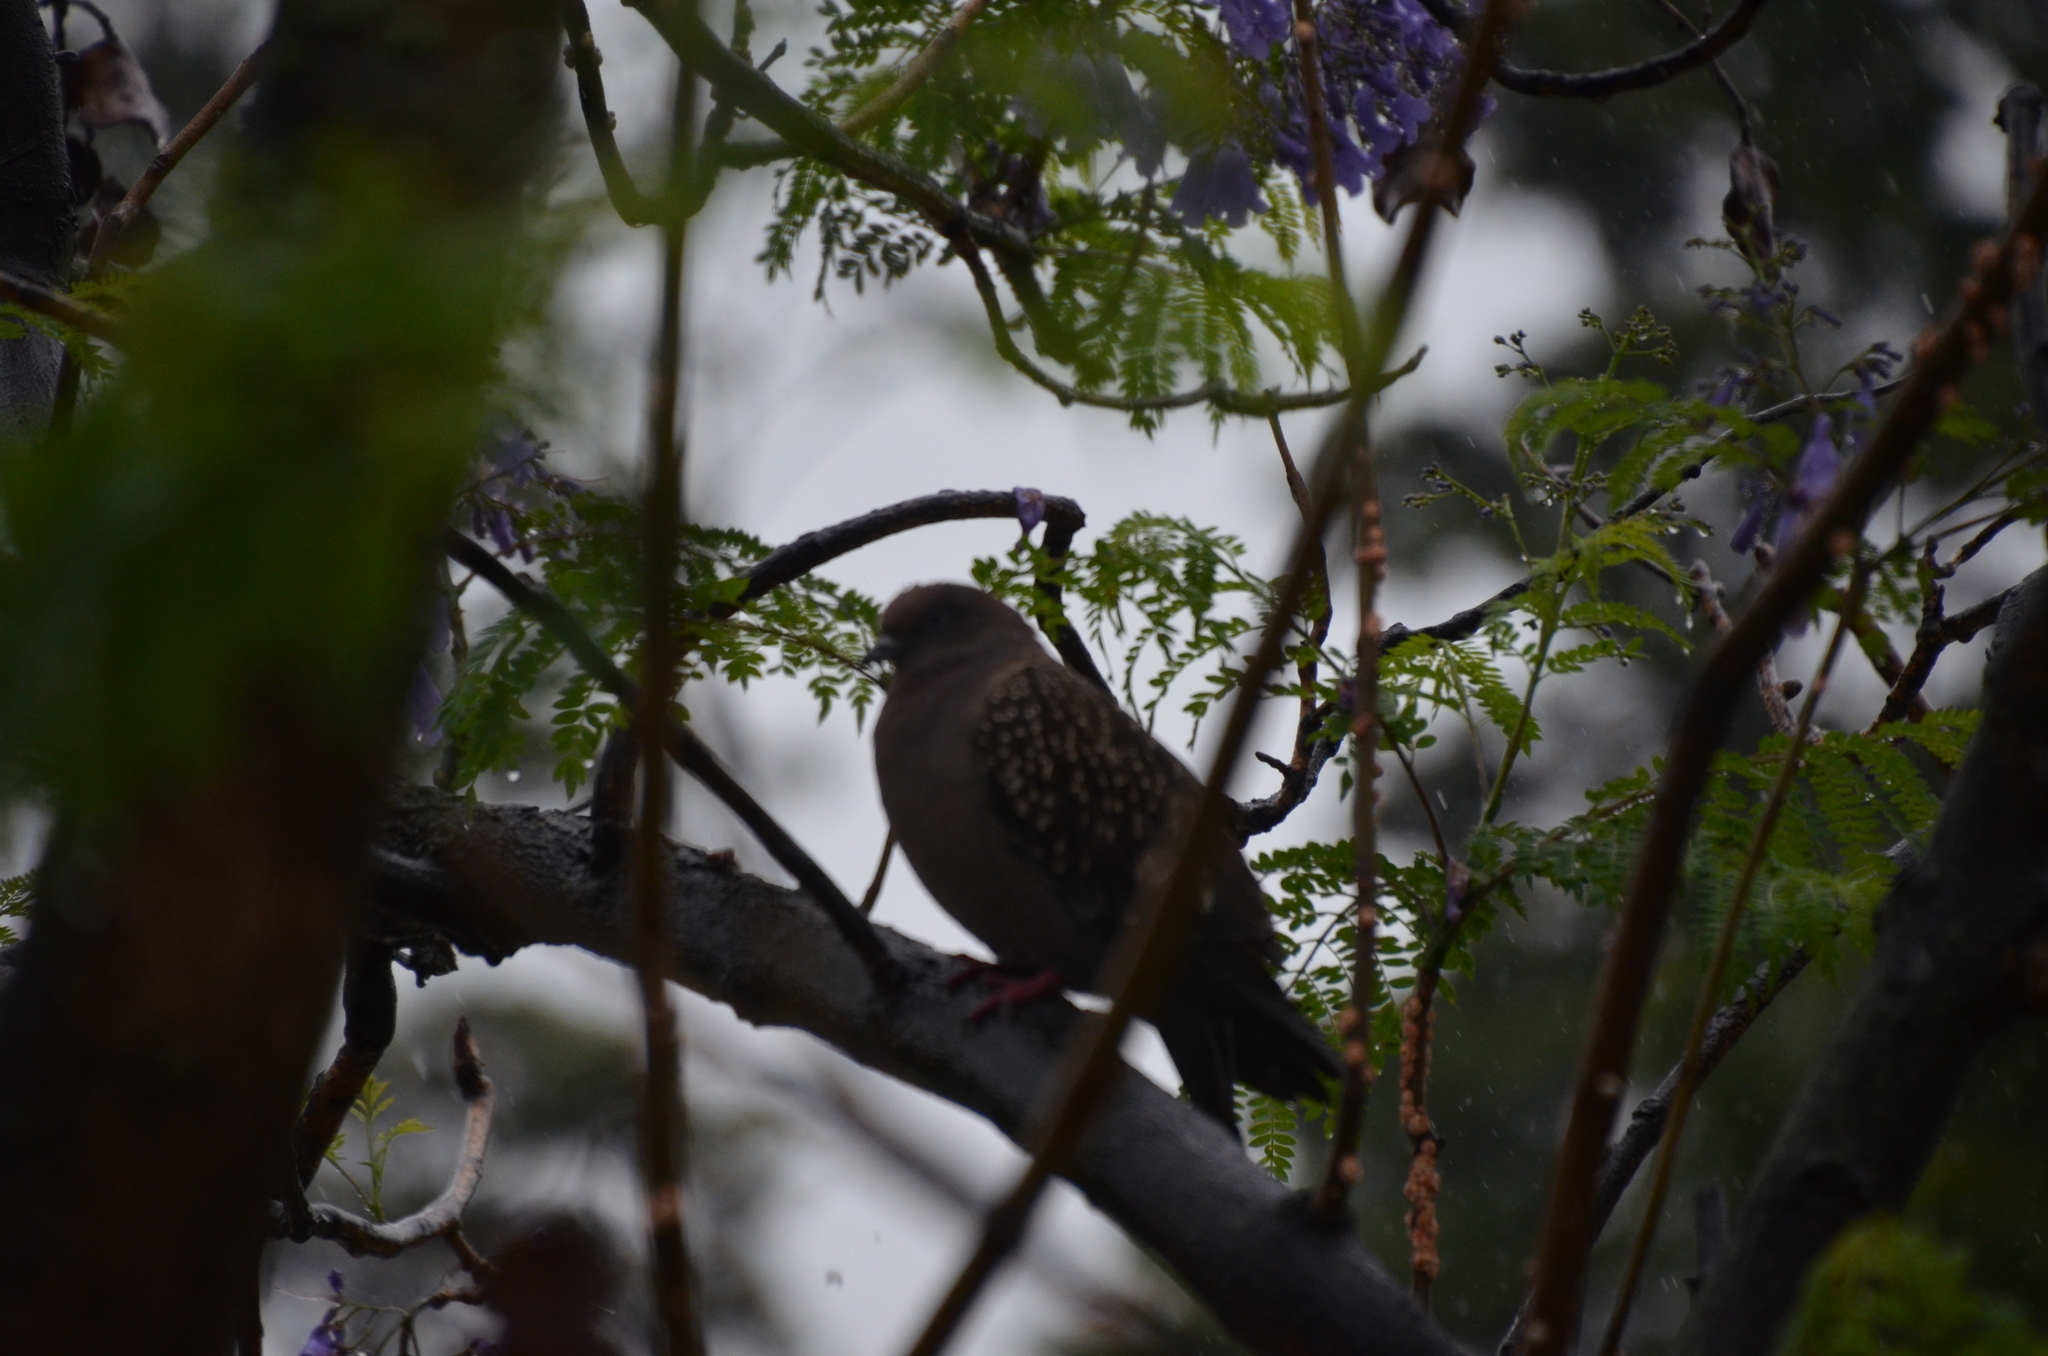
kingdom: Animalia
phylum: Chordata
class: Aves
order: Columbiformes
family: Columbidae
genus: Patagioenas
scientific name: Patagioenas maculosa
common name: Spot-winged pigeon
